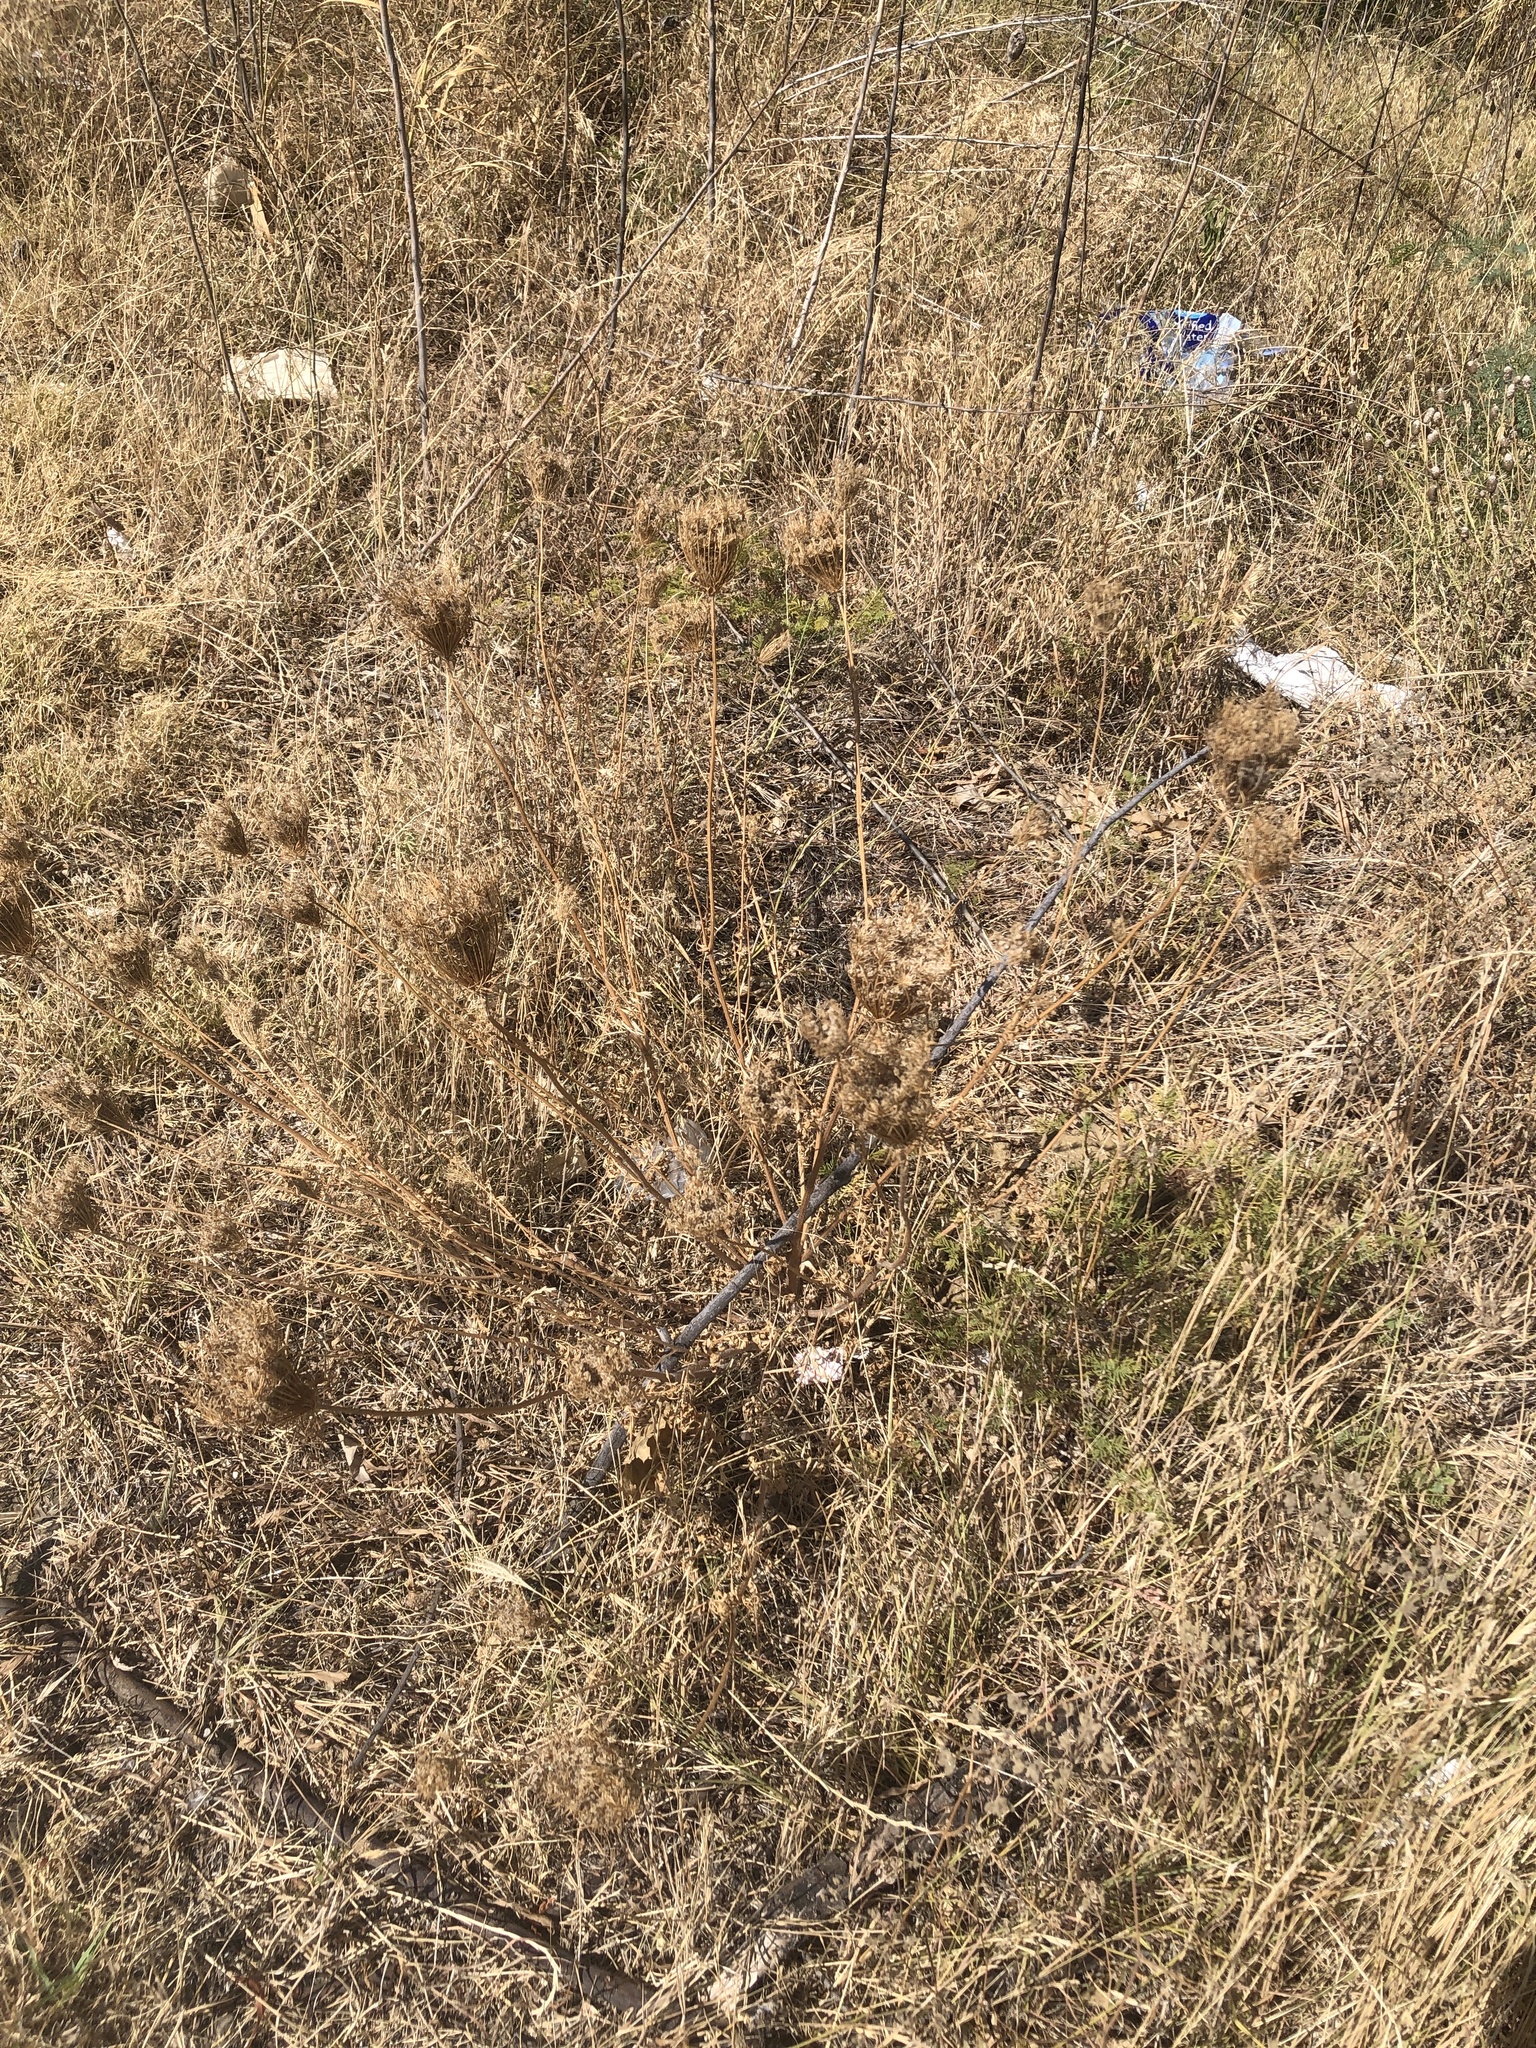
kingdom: Plantae
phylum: Tracheophyta
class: Magnoliopsida
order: Apiales
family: Apiaceae
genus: Daucus
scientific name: Daucus carota
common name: Wild carrot
